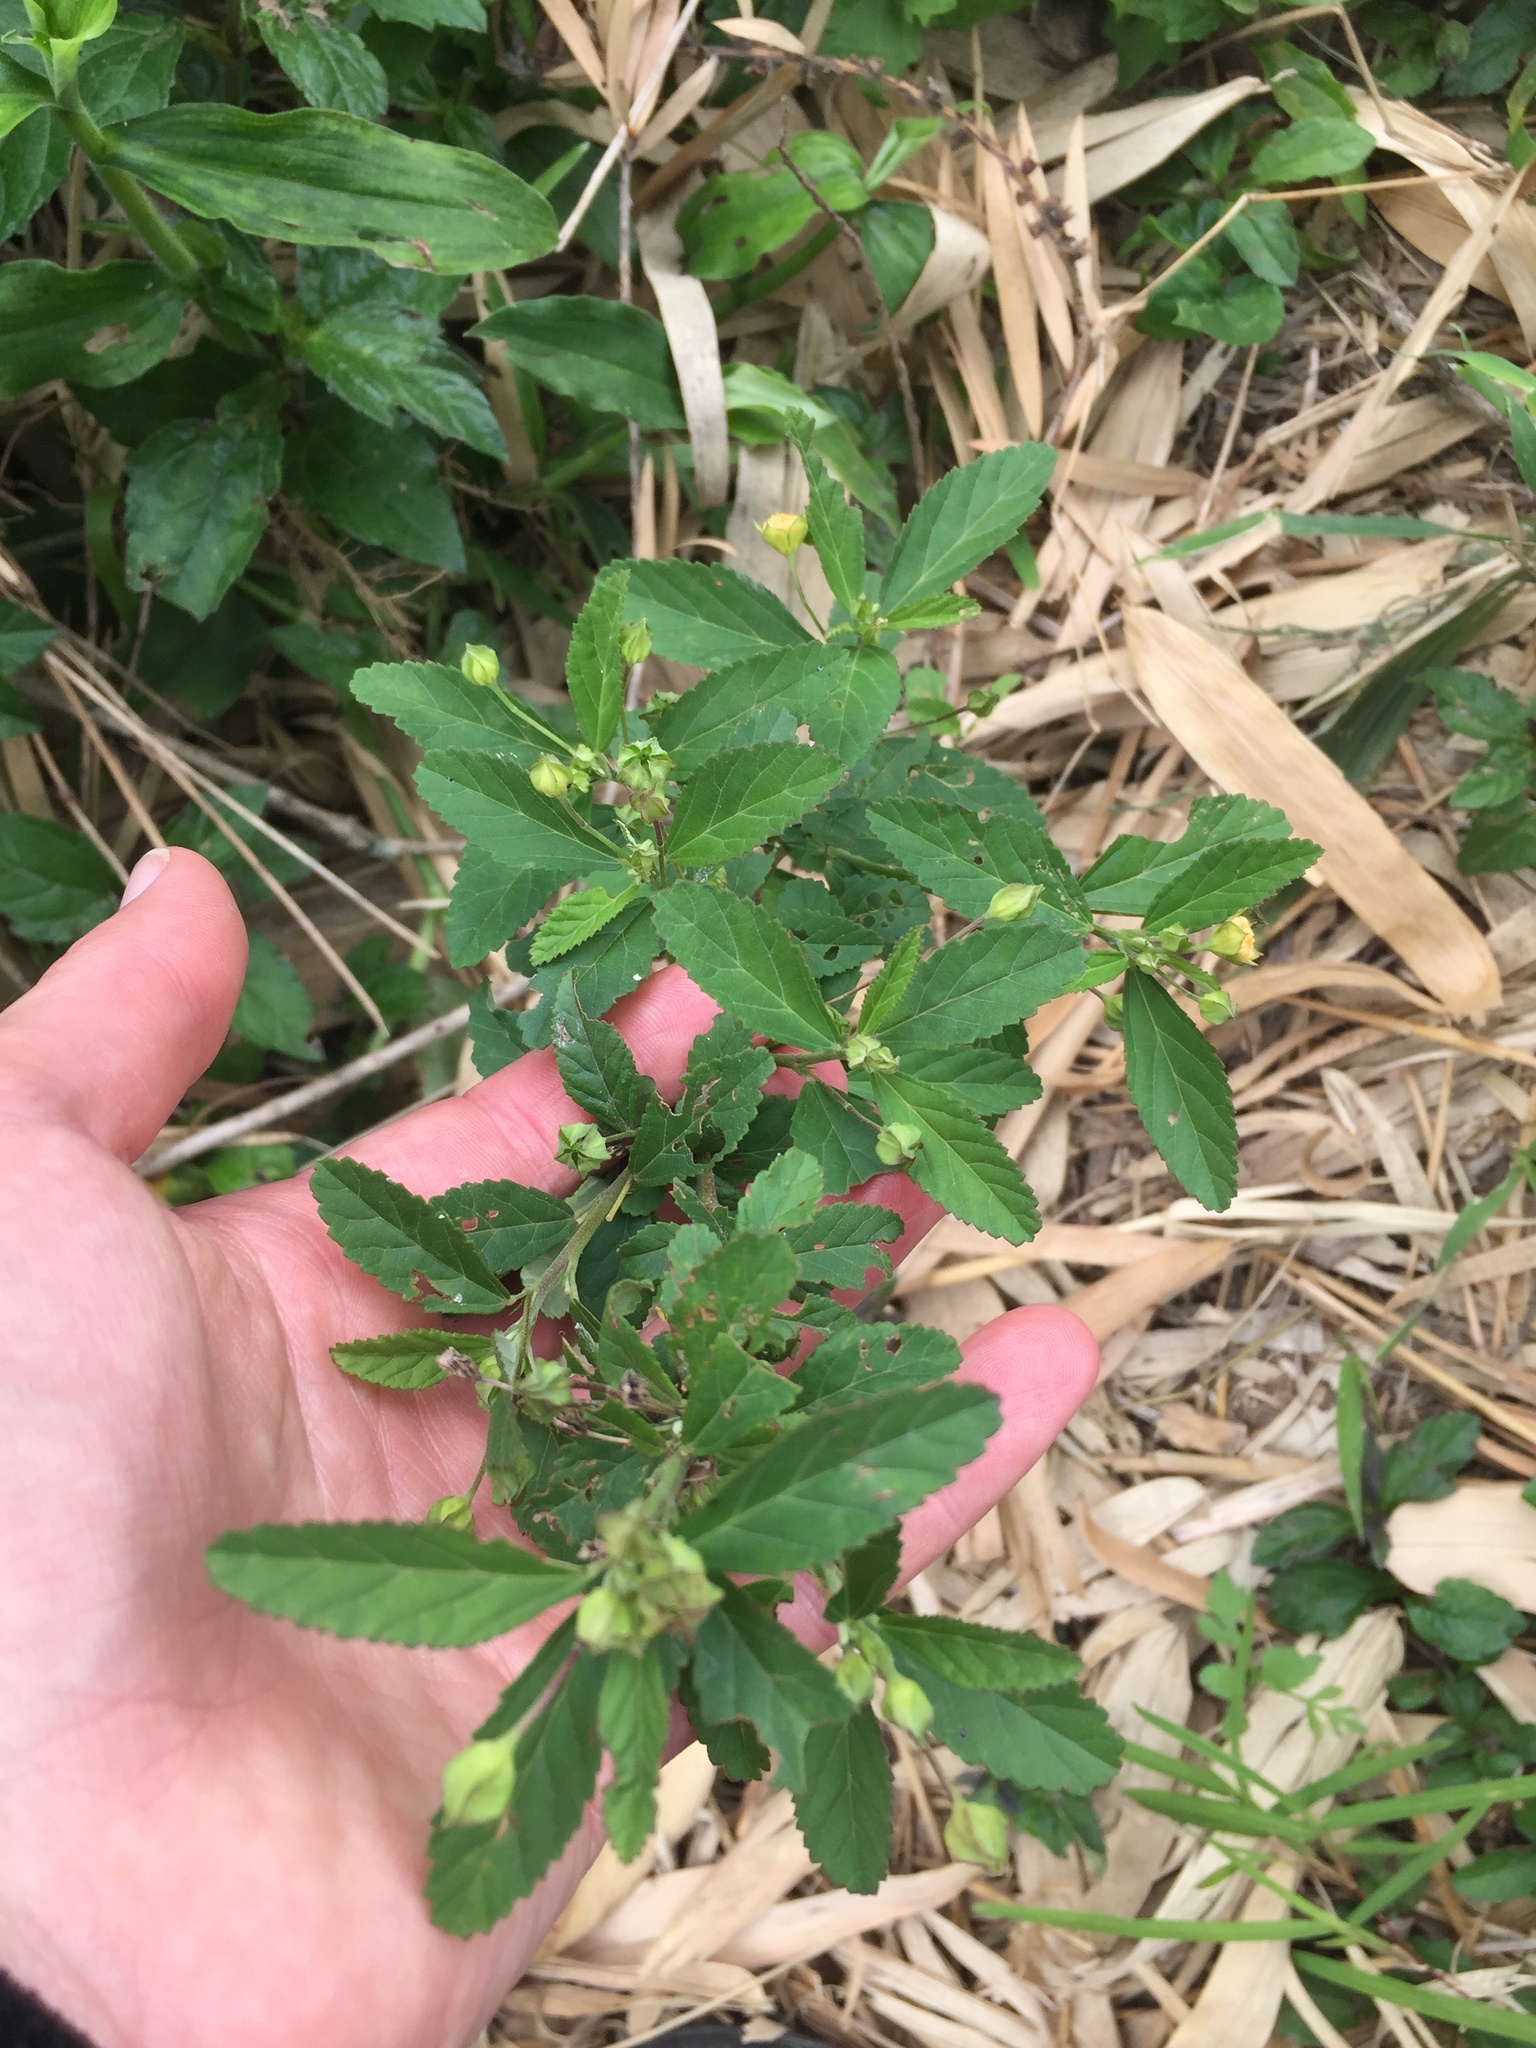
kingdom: Plantae
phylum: Tracheophyta
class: Magnoliopsida
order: Malvales
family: Malvaceae
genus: Sida
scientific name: Sida lancifolia
